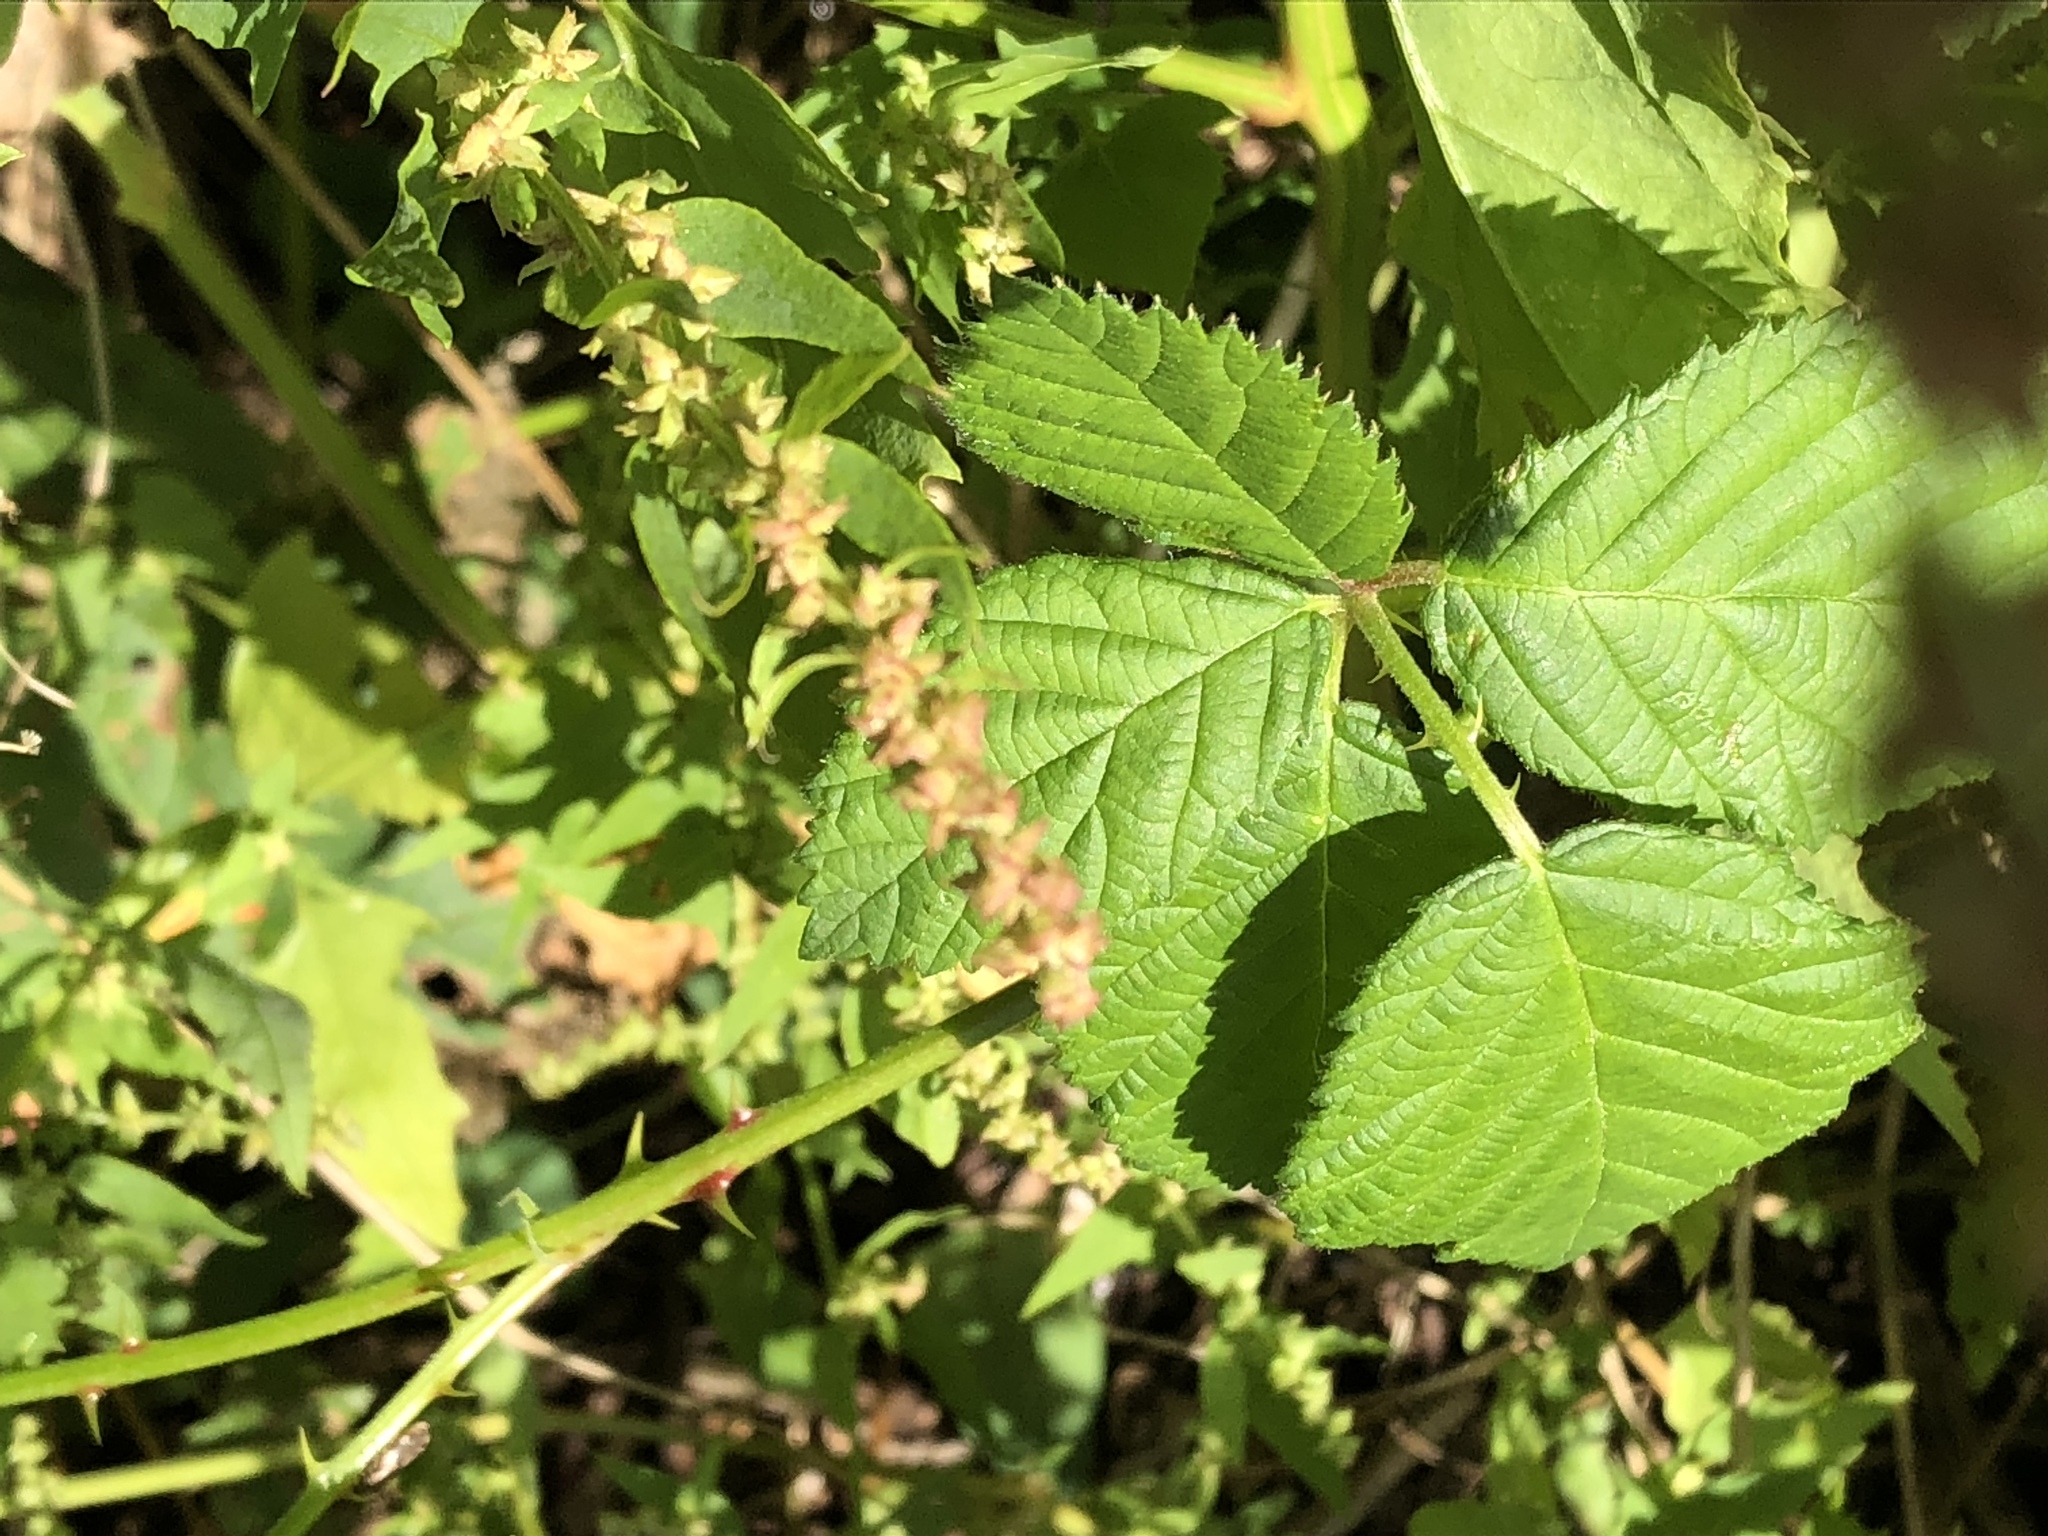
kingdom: Plantae
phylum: Tracheophyta
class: Magnoliopsida
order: Caryophyllales
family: Amaranthaceae
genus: Atriplex
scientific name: Atriplex patula
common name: Common orache
